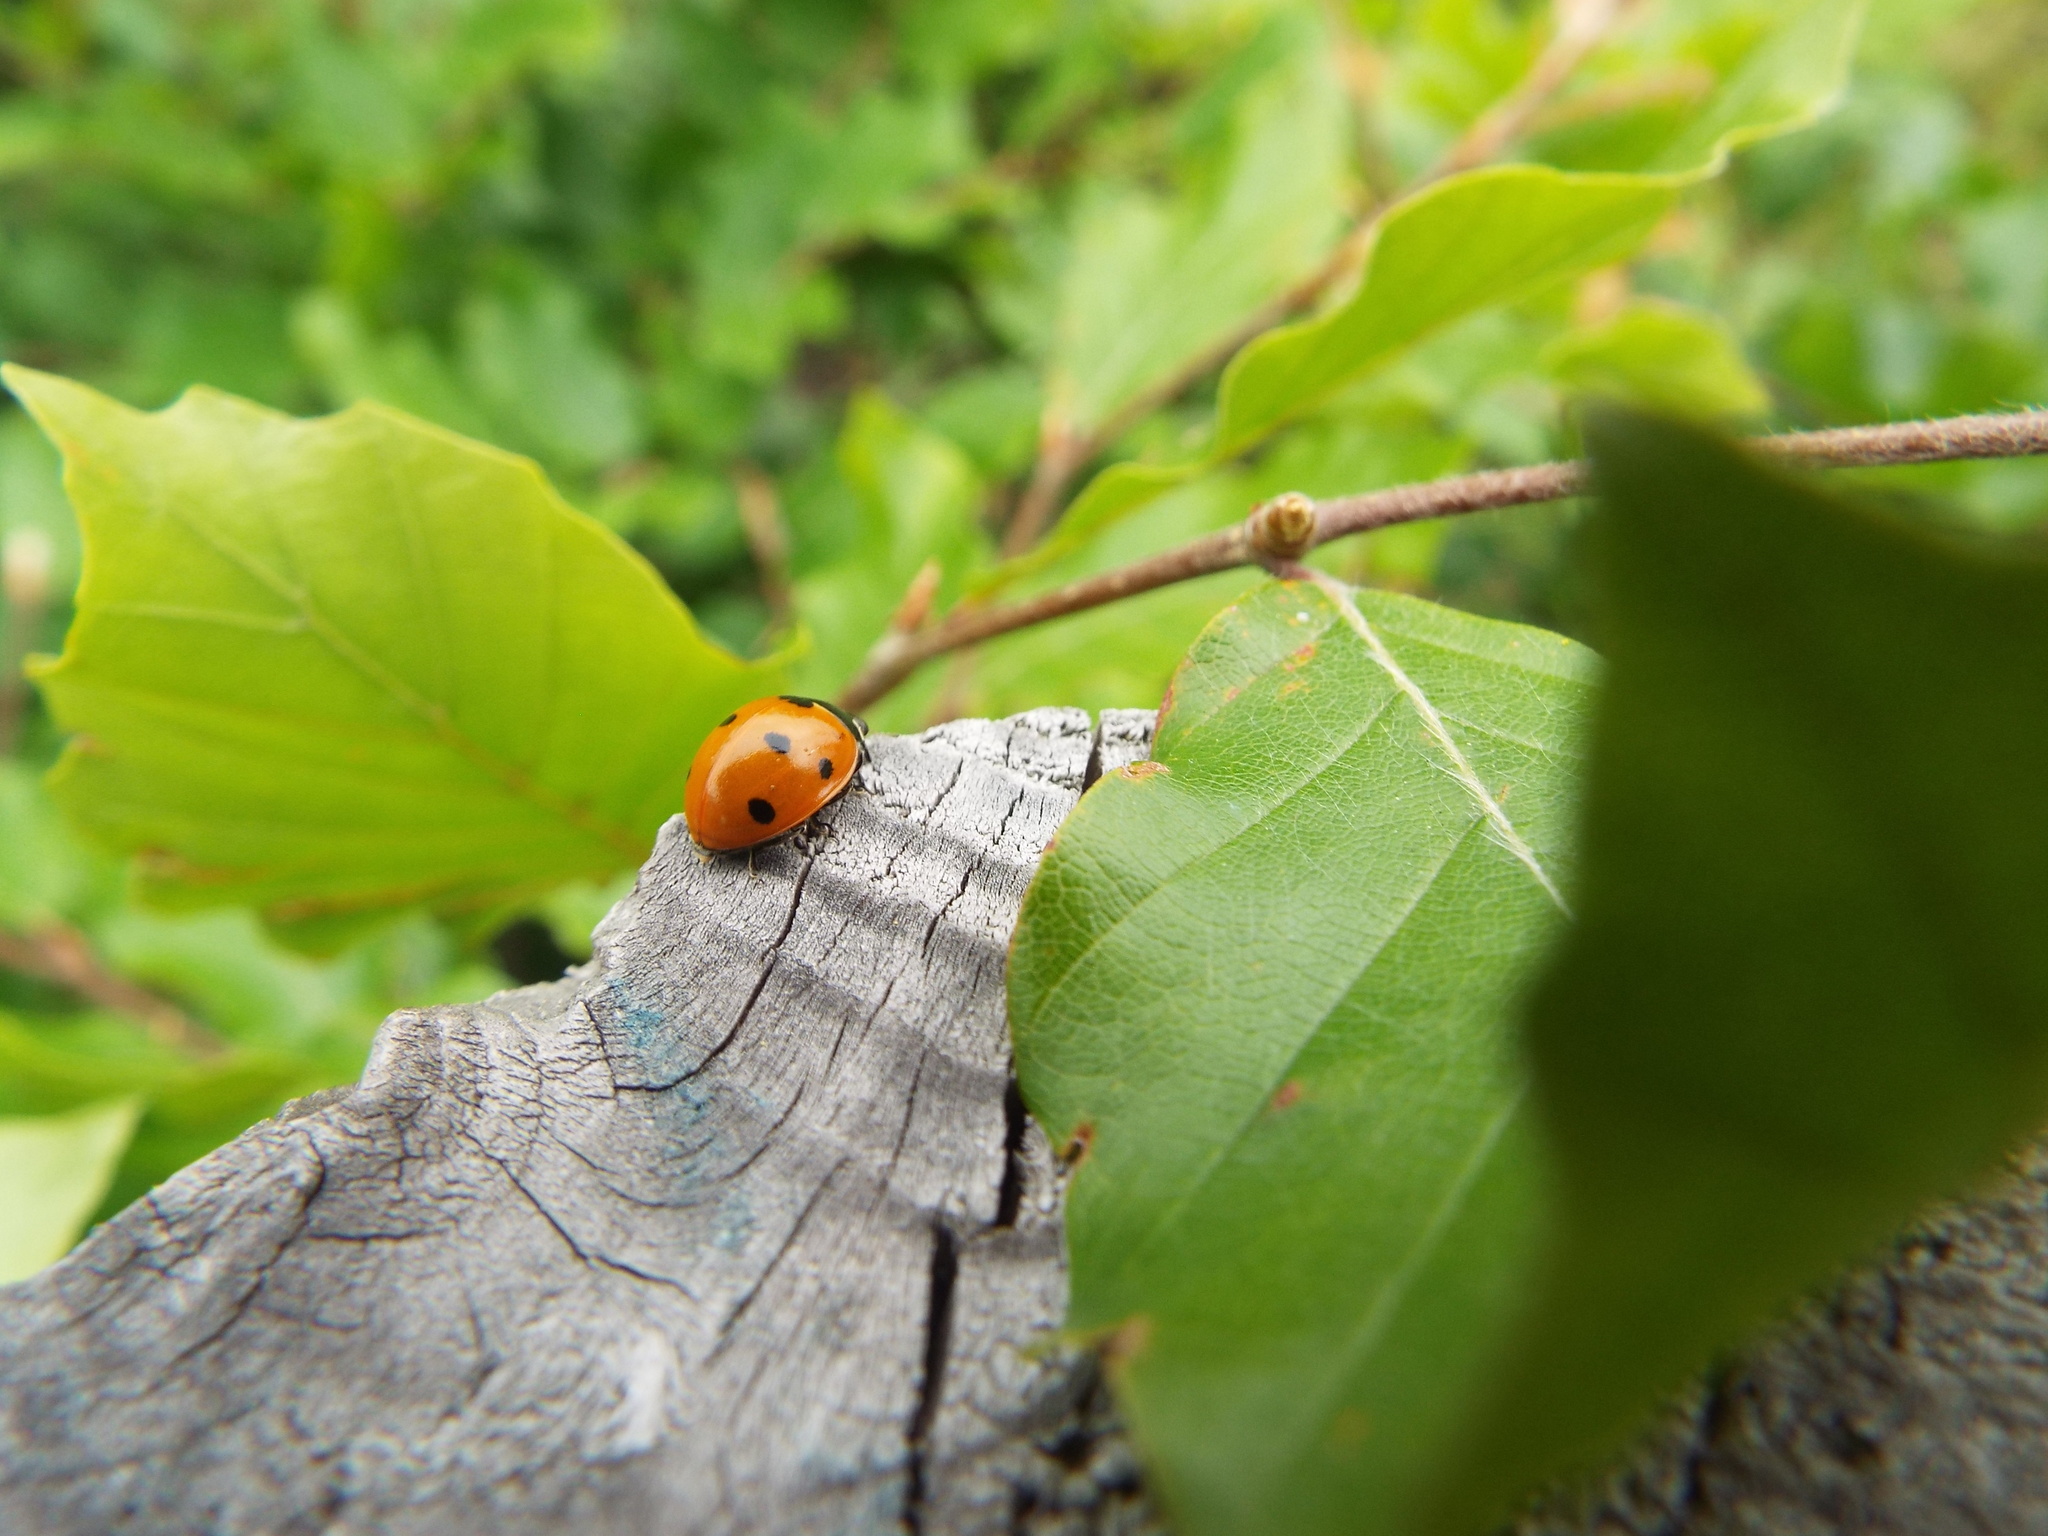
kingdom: Animalia
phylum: Arthropoda
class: Insecta
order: Coleoptera
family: Coccinellidae
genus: Coccinella
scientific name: Coccinella septempunctata
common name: Sevenspotted lady beetle
